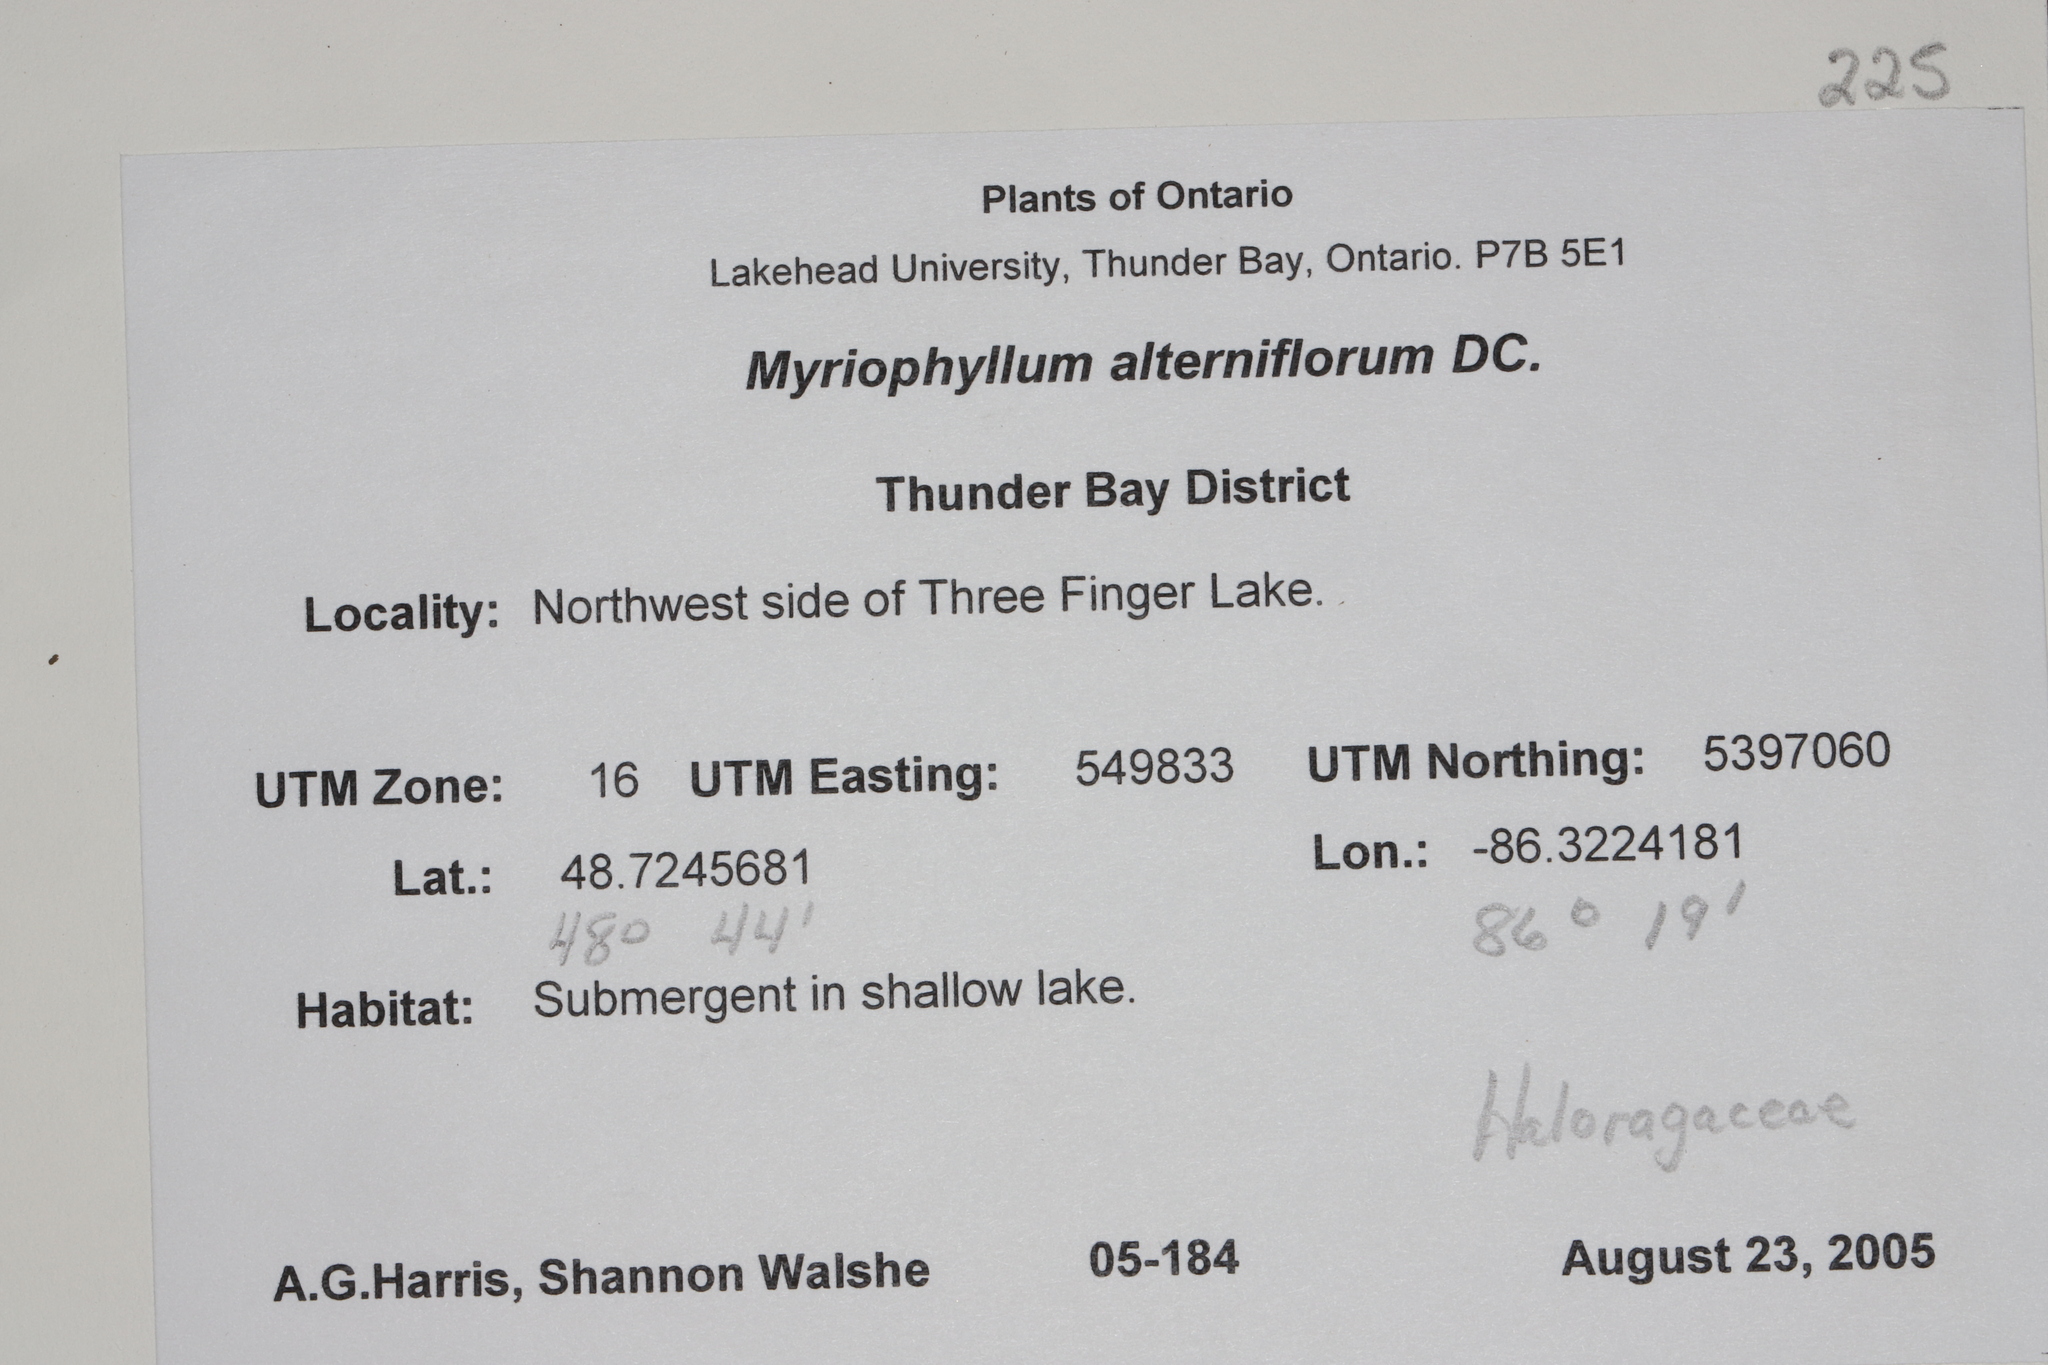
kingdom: Plantae
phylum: Tracheophyta
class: Magnoliopsida
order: Saxifragales
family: Haloragaceae
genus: Myriophyllum
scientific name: Myriophyllum alterniflorum
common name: Alternate water-milfoil
